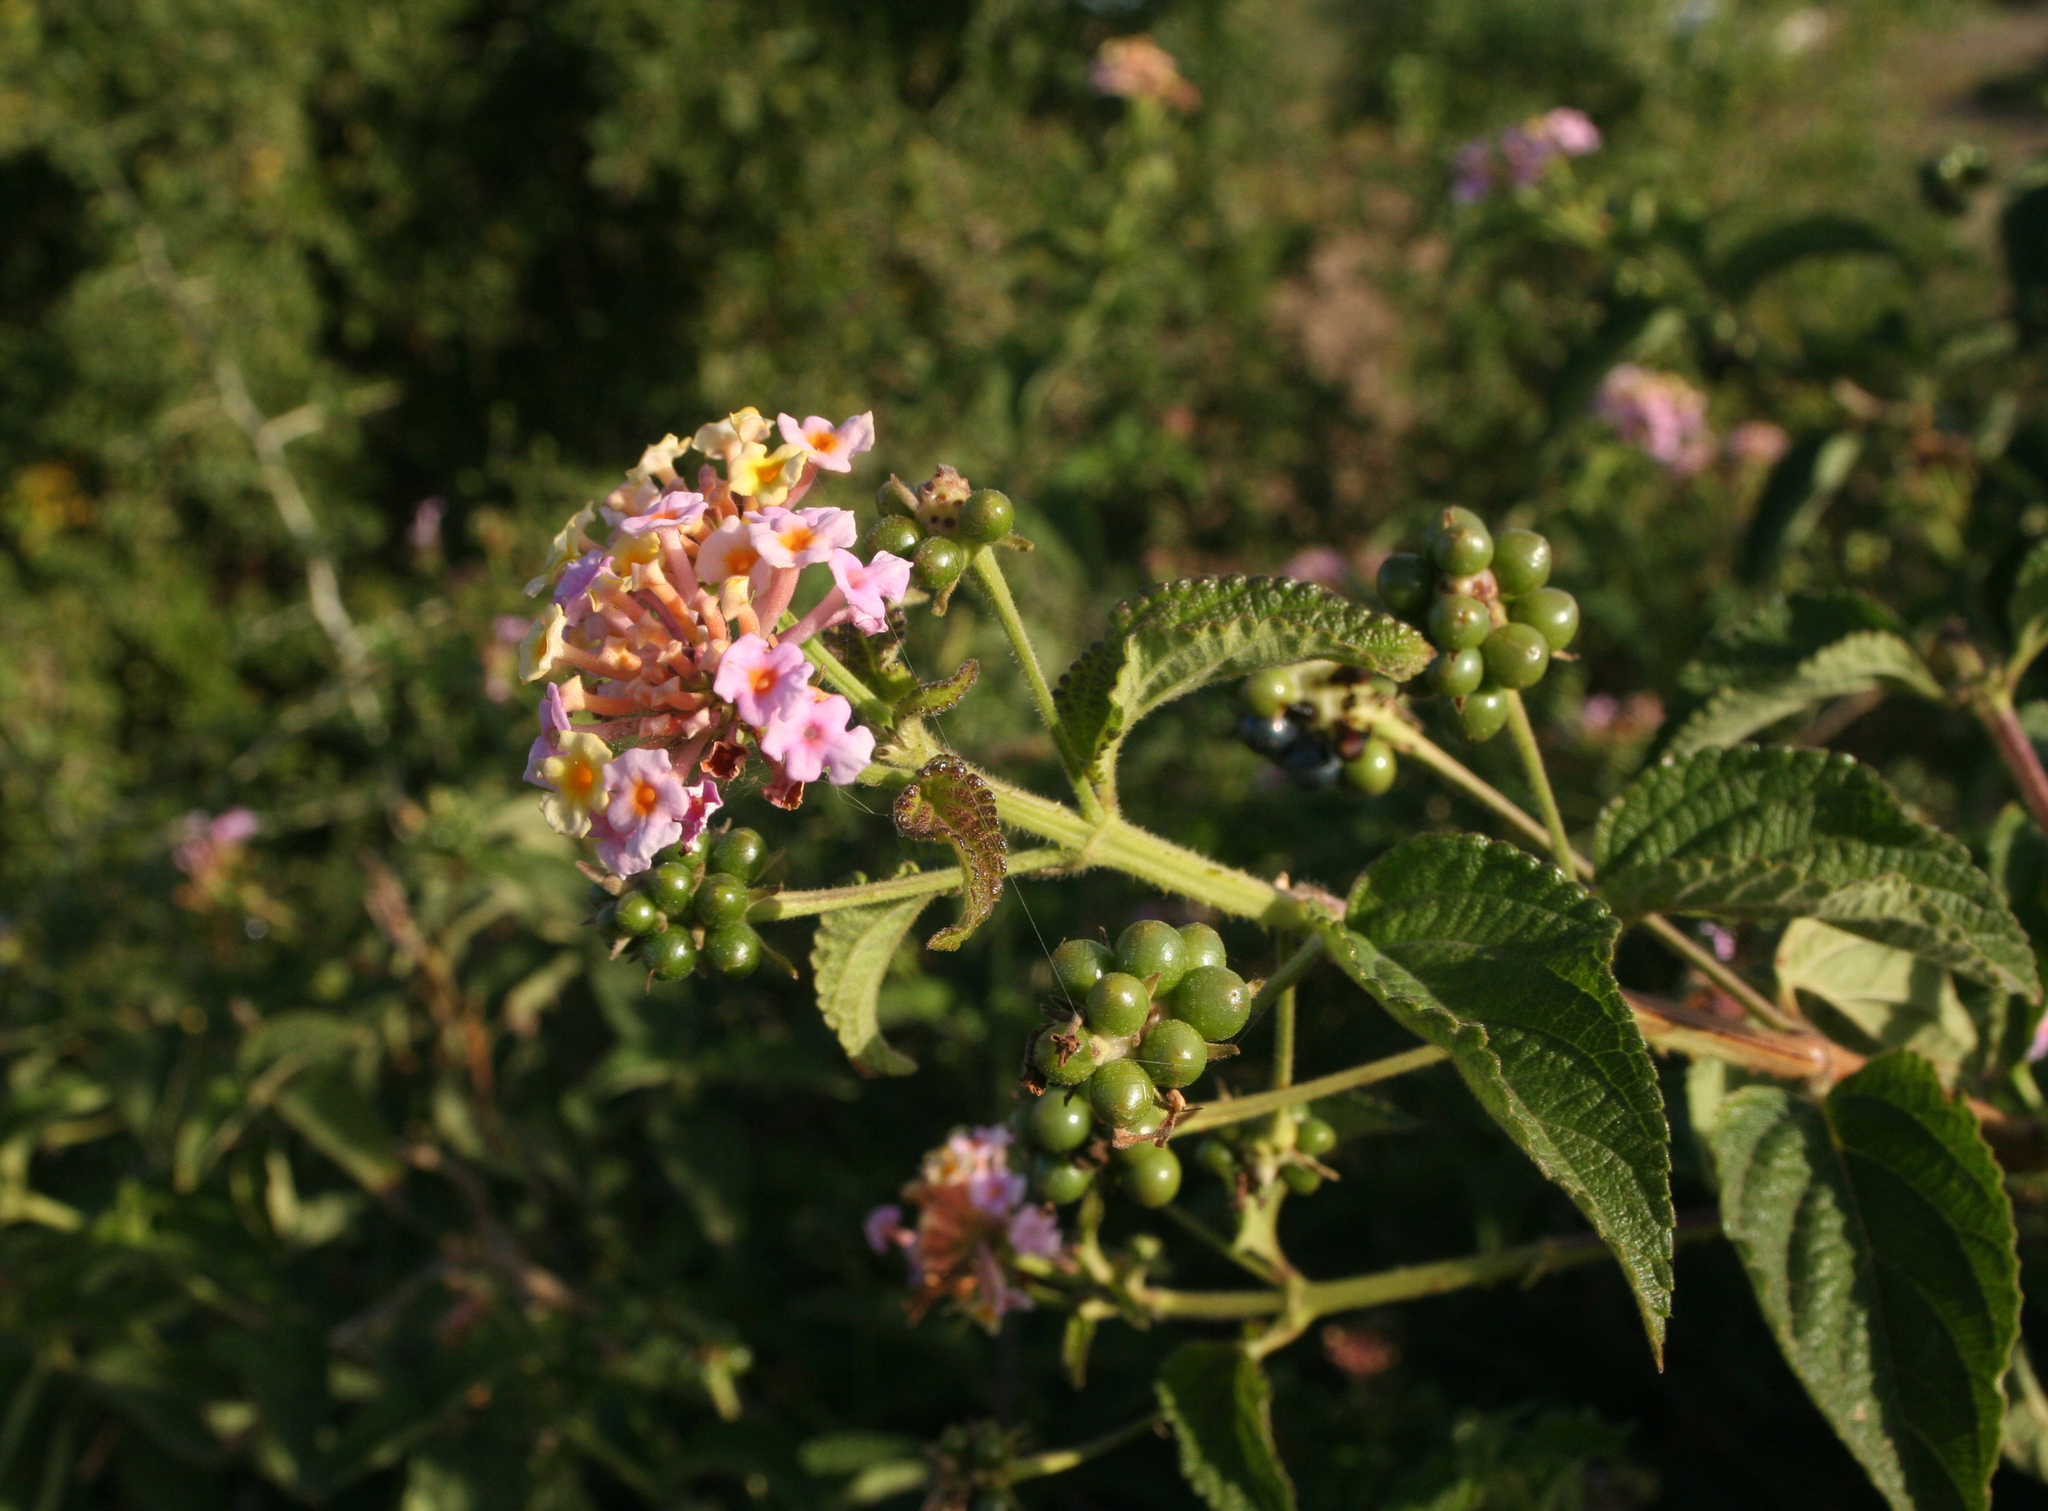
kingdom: Plantae
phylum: Tracheophyta
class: Magnoliopsida
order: Lamiales
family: Verbenaceae
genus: Lantana
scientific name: Lantana camara
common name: Lantana
